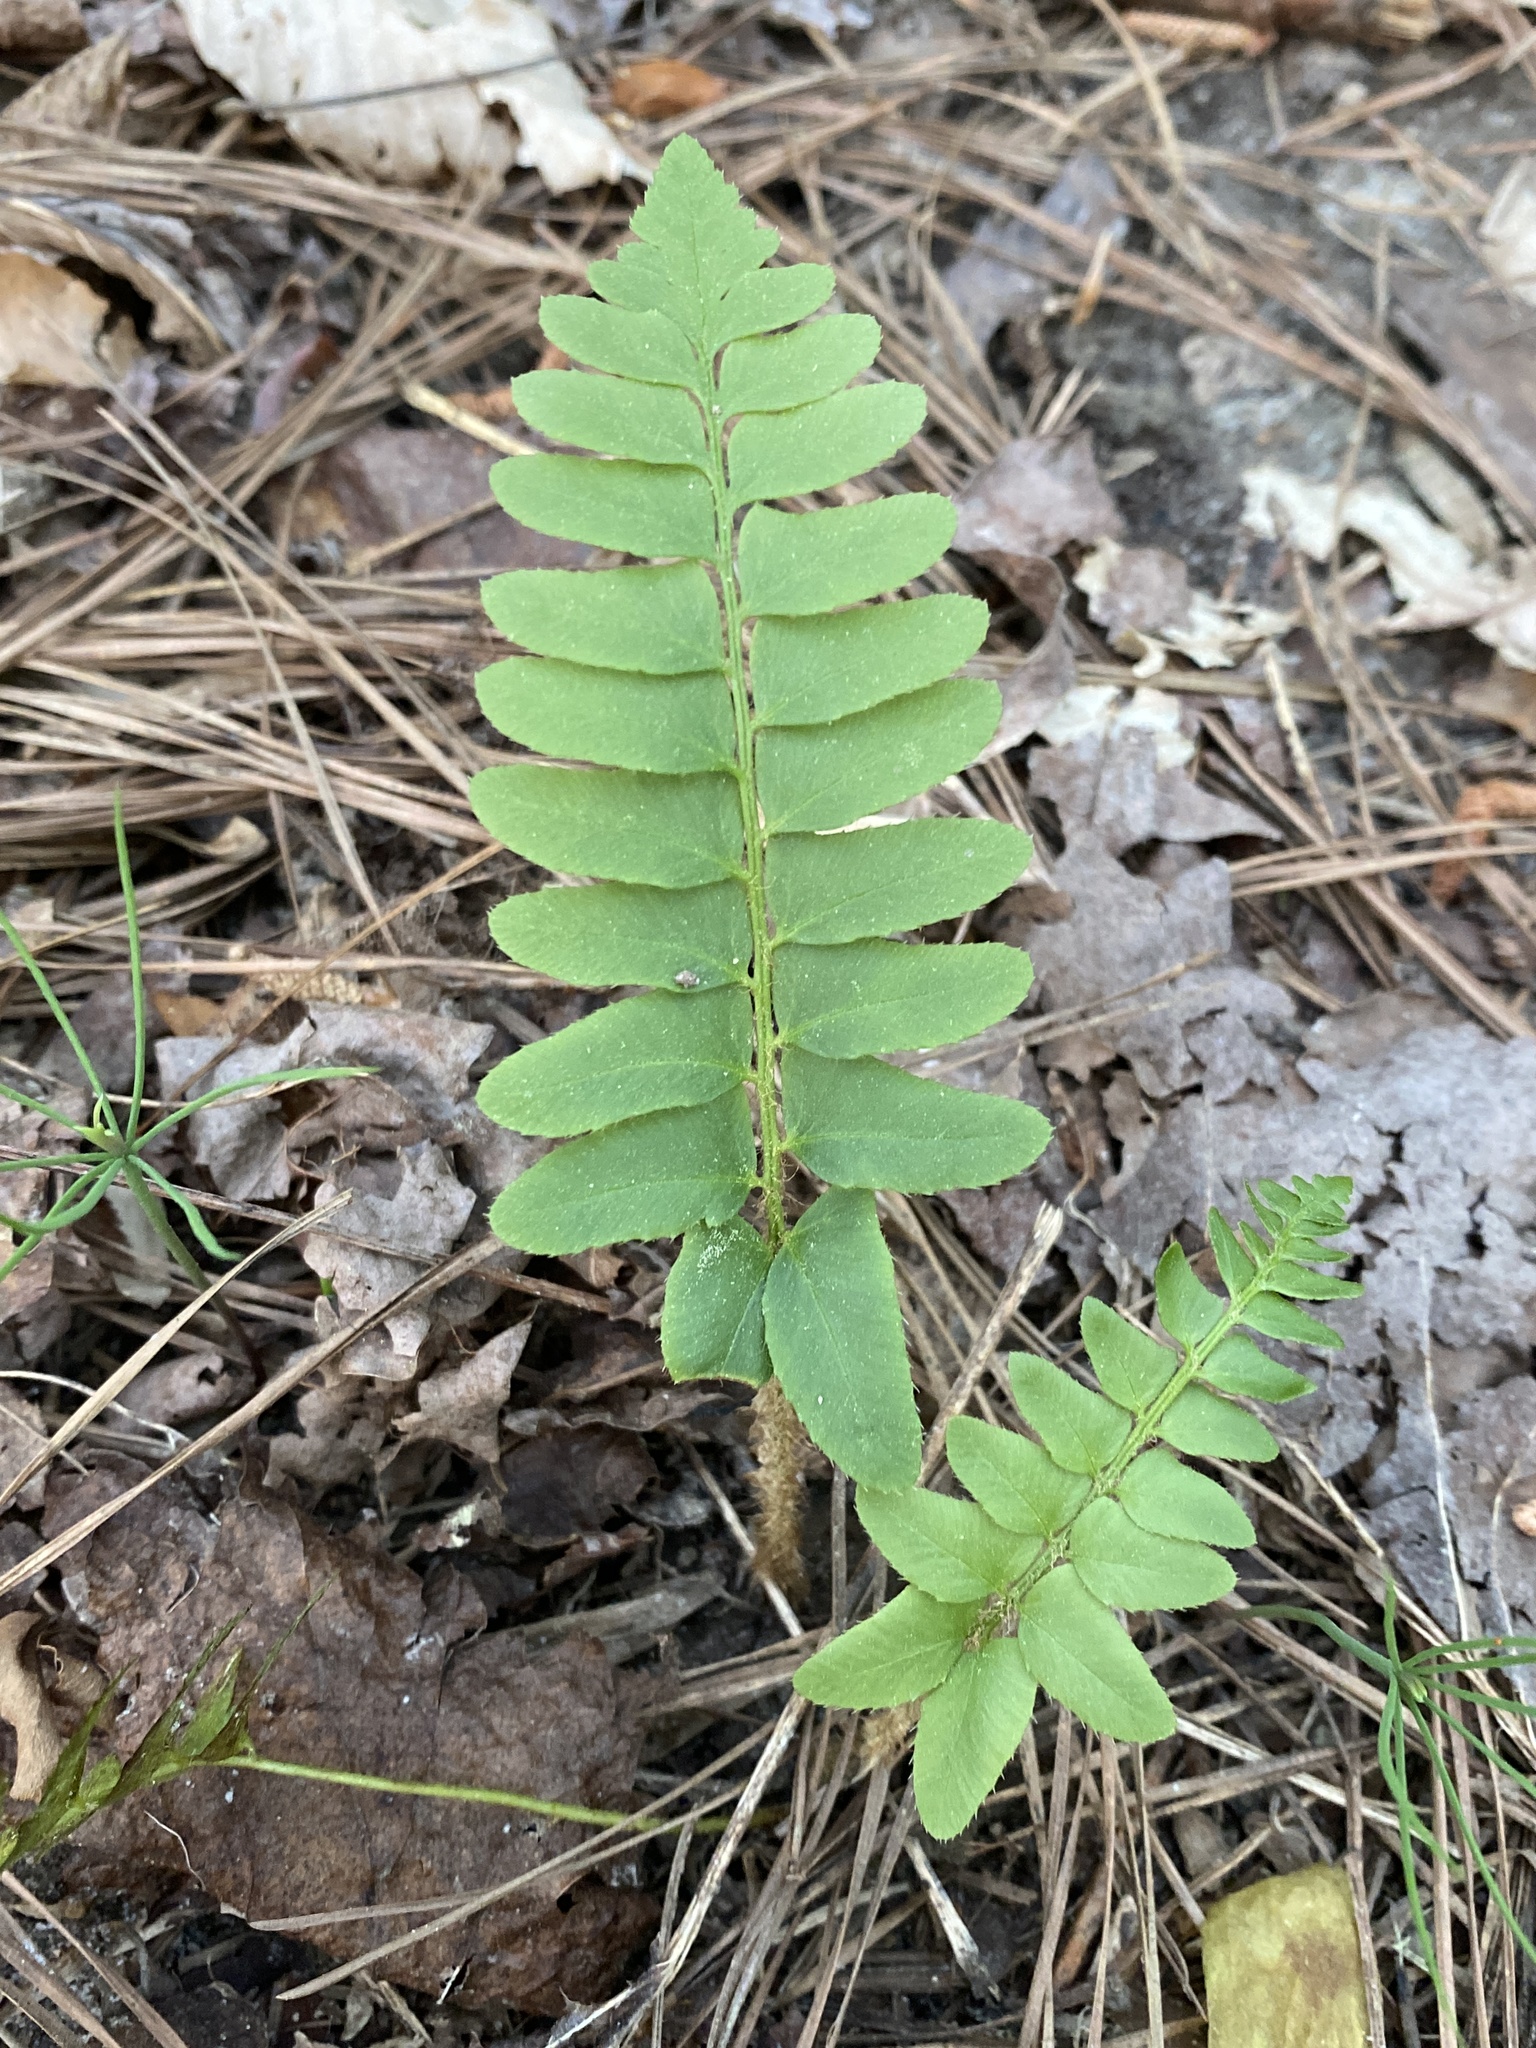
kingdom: Plantae
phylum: Tracheophyta
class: Polypodiopsida
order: Polypodiales
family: Dryopteridaceae
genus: Polystichum
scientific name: Polystichum acrostichoides
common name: Christmas fern
